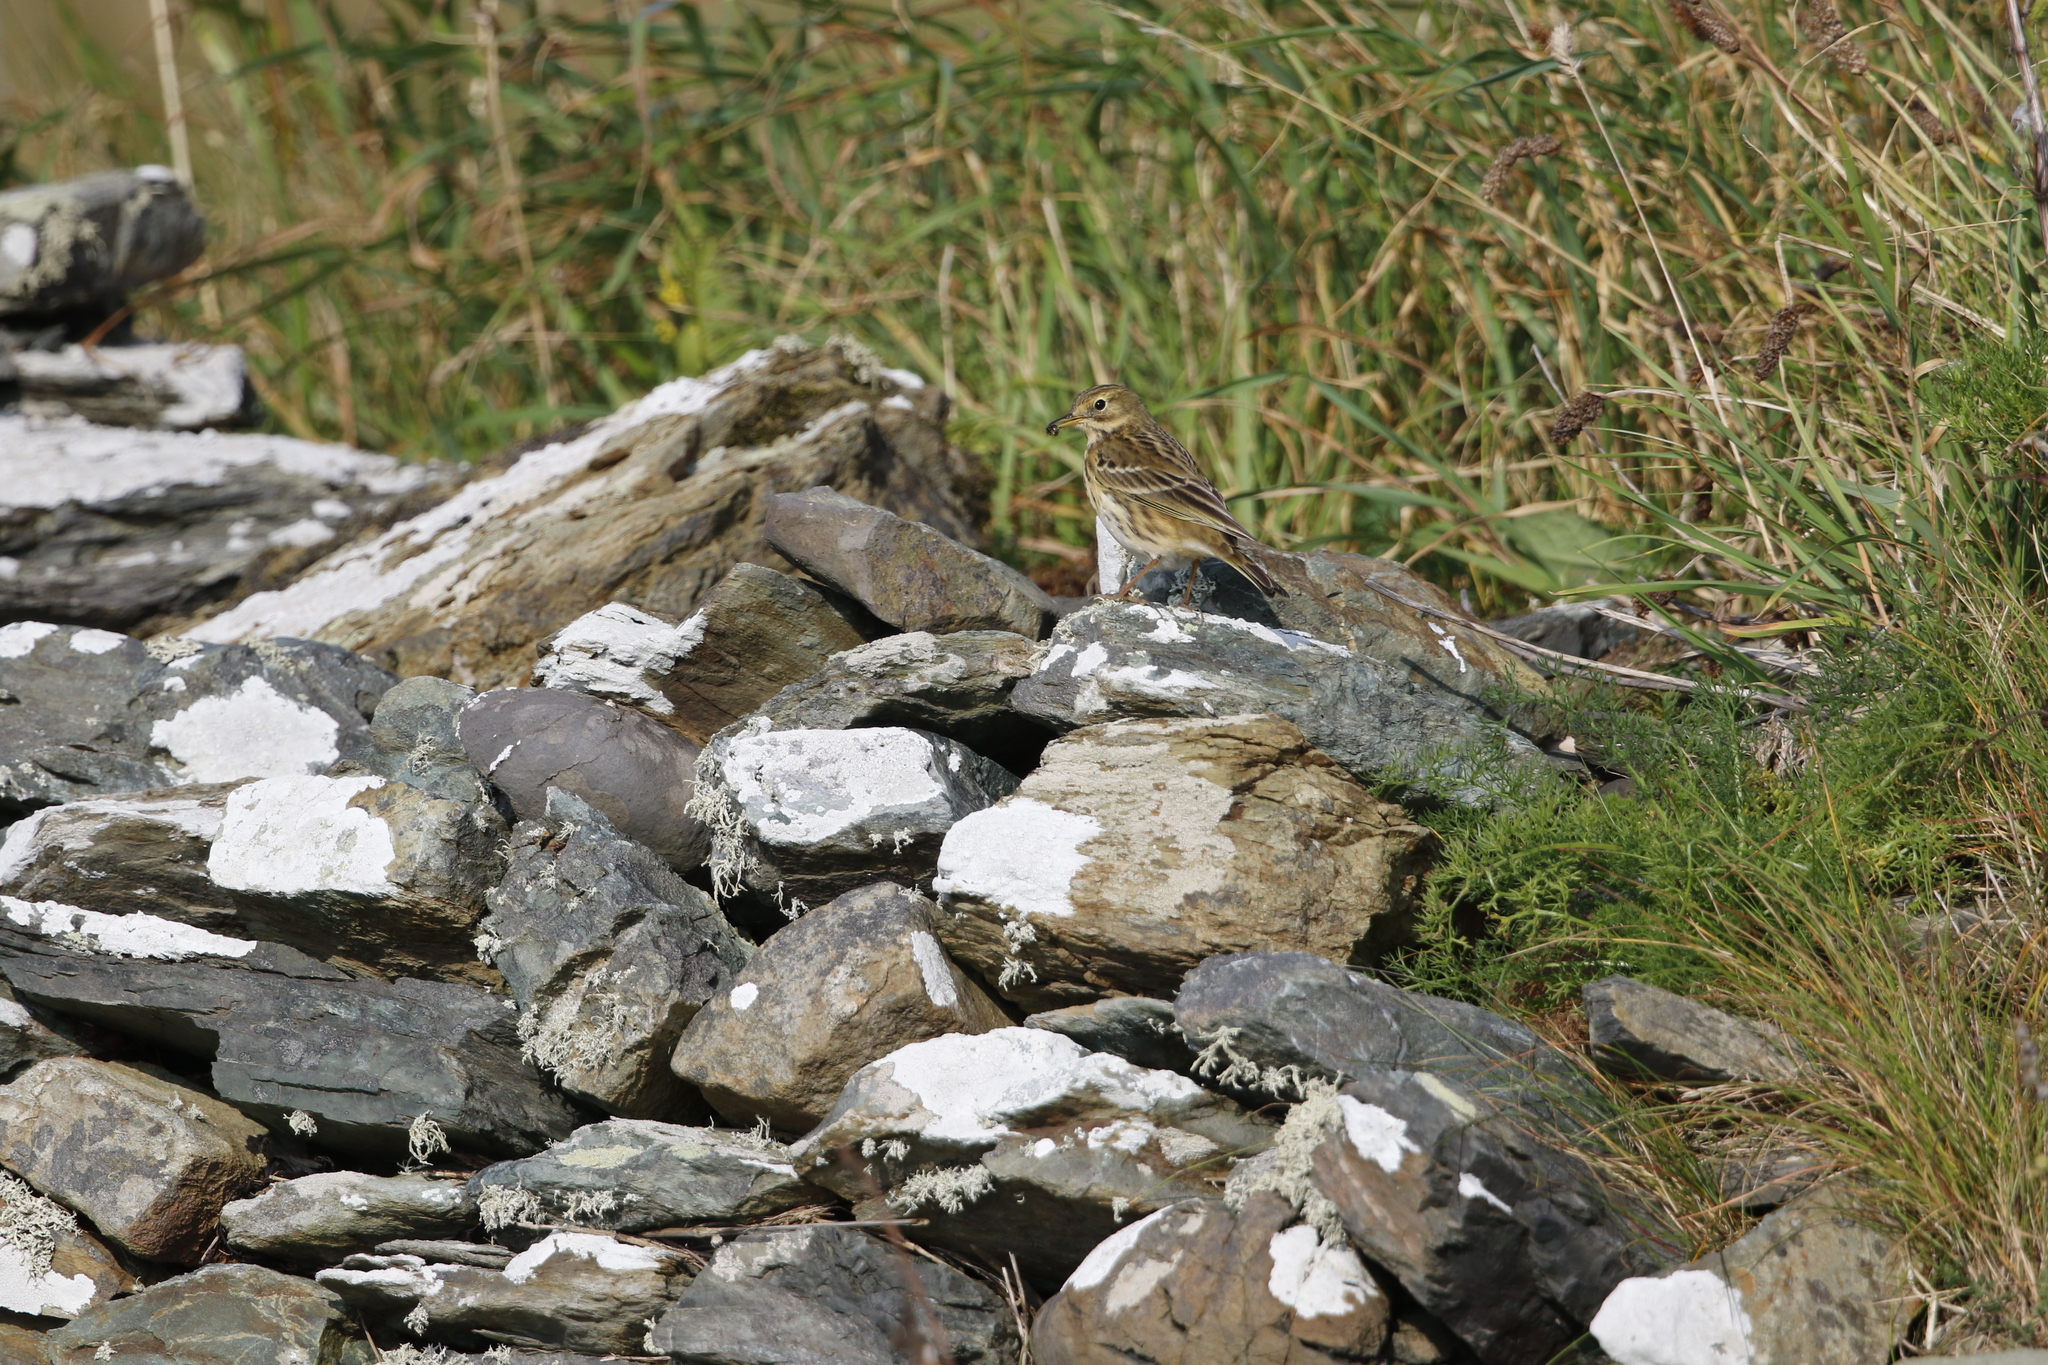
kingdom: Animalia
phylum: Chordata
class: Aves
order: Passeriformes
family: Motacillidae
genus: Anthus
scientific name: Anthus pratensis
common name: Meadow pipit
